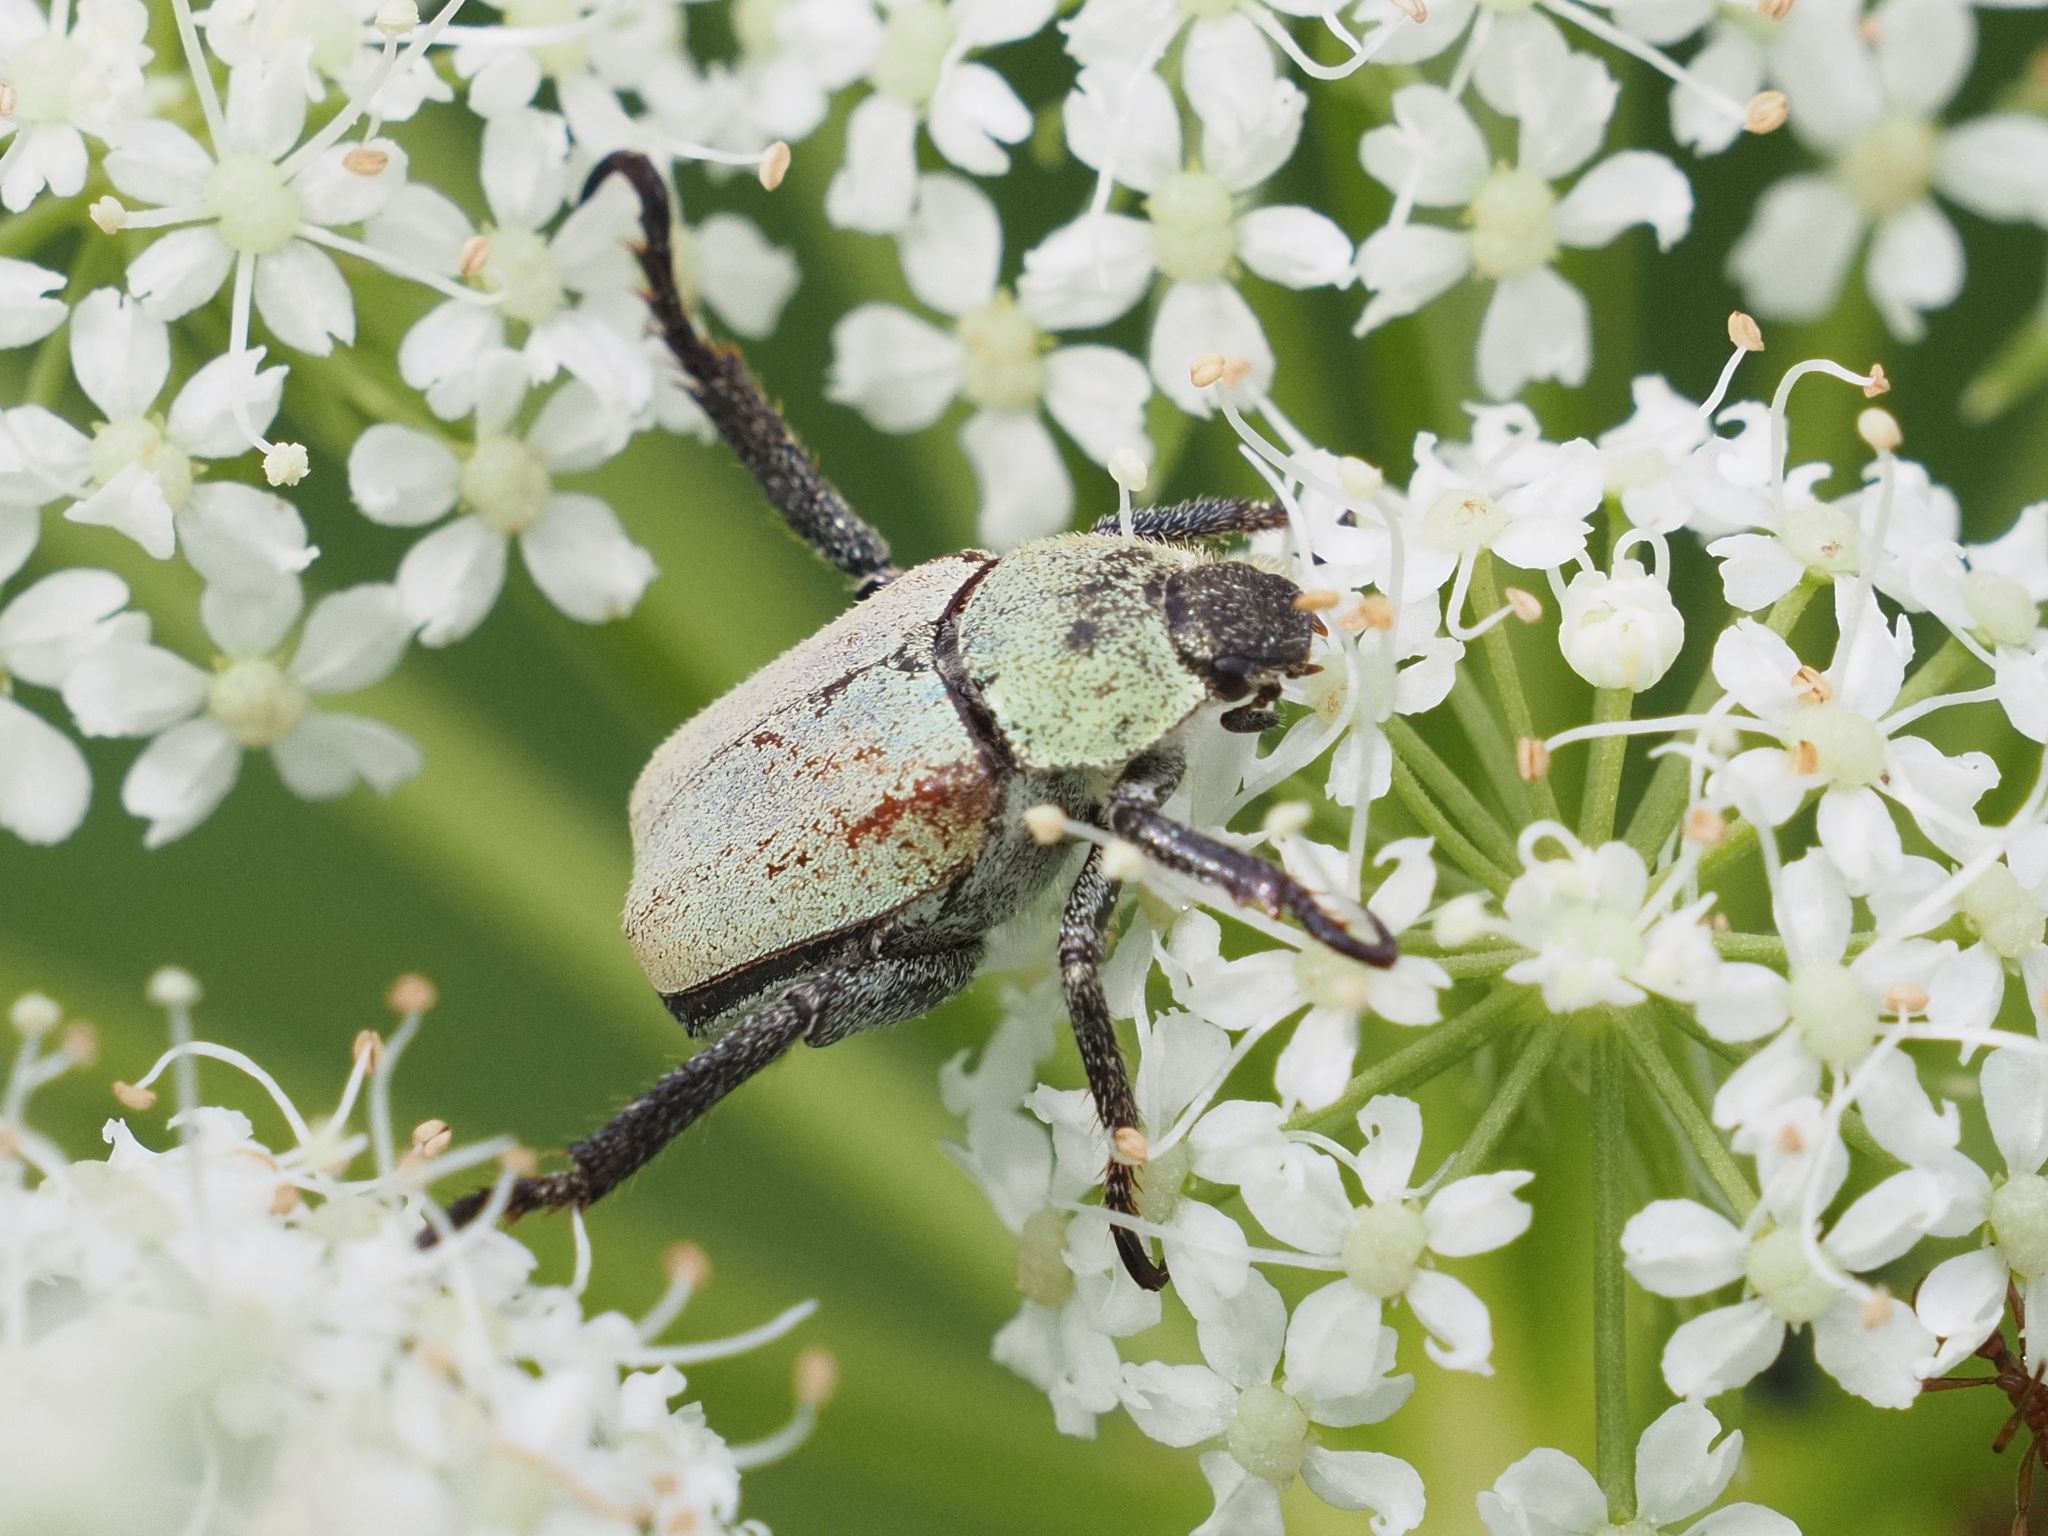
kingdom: Animalia
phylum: Arthropoda
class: Insecta
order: Coleoptera
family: Scarabaeidae
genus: Hoplia
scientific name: Hoplia argentea
